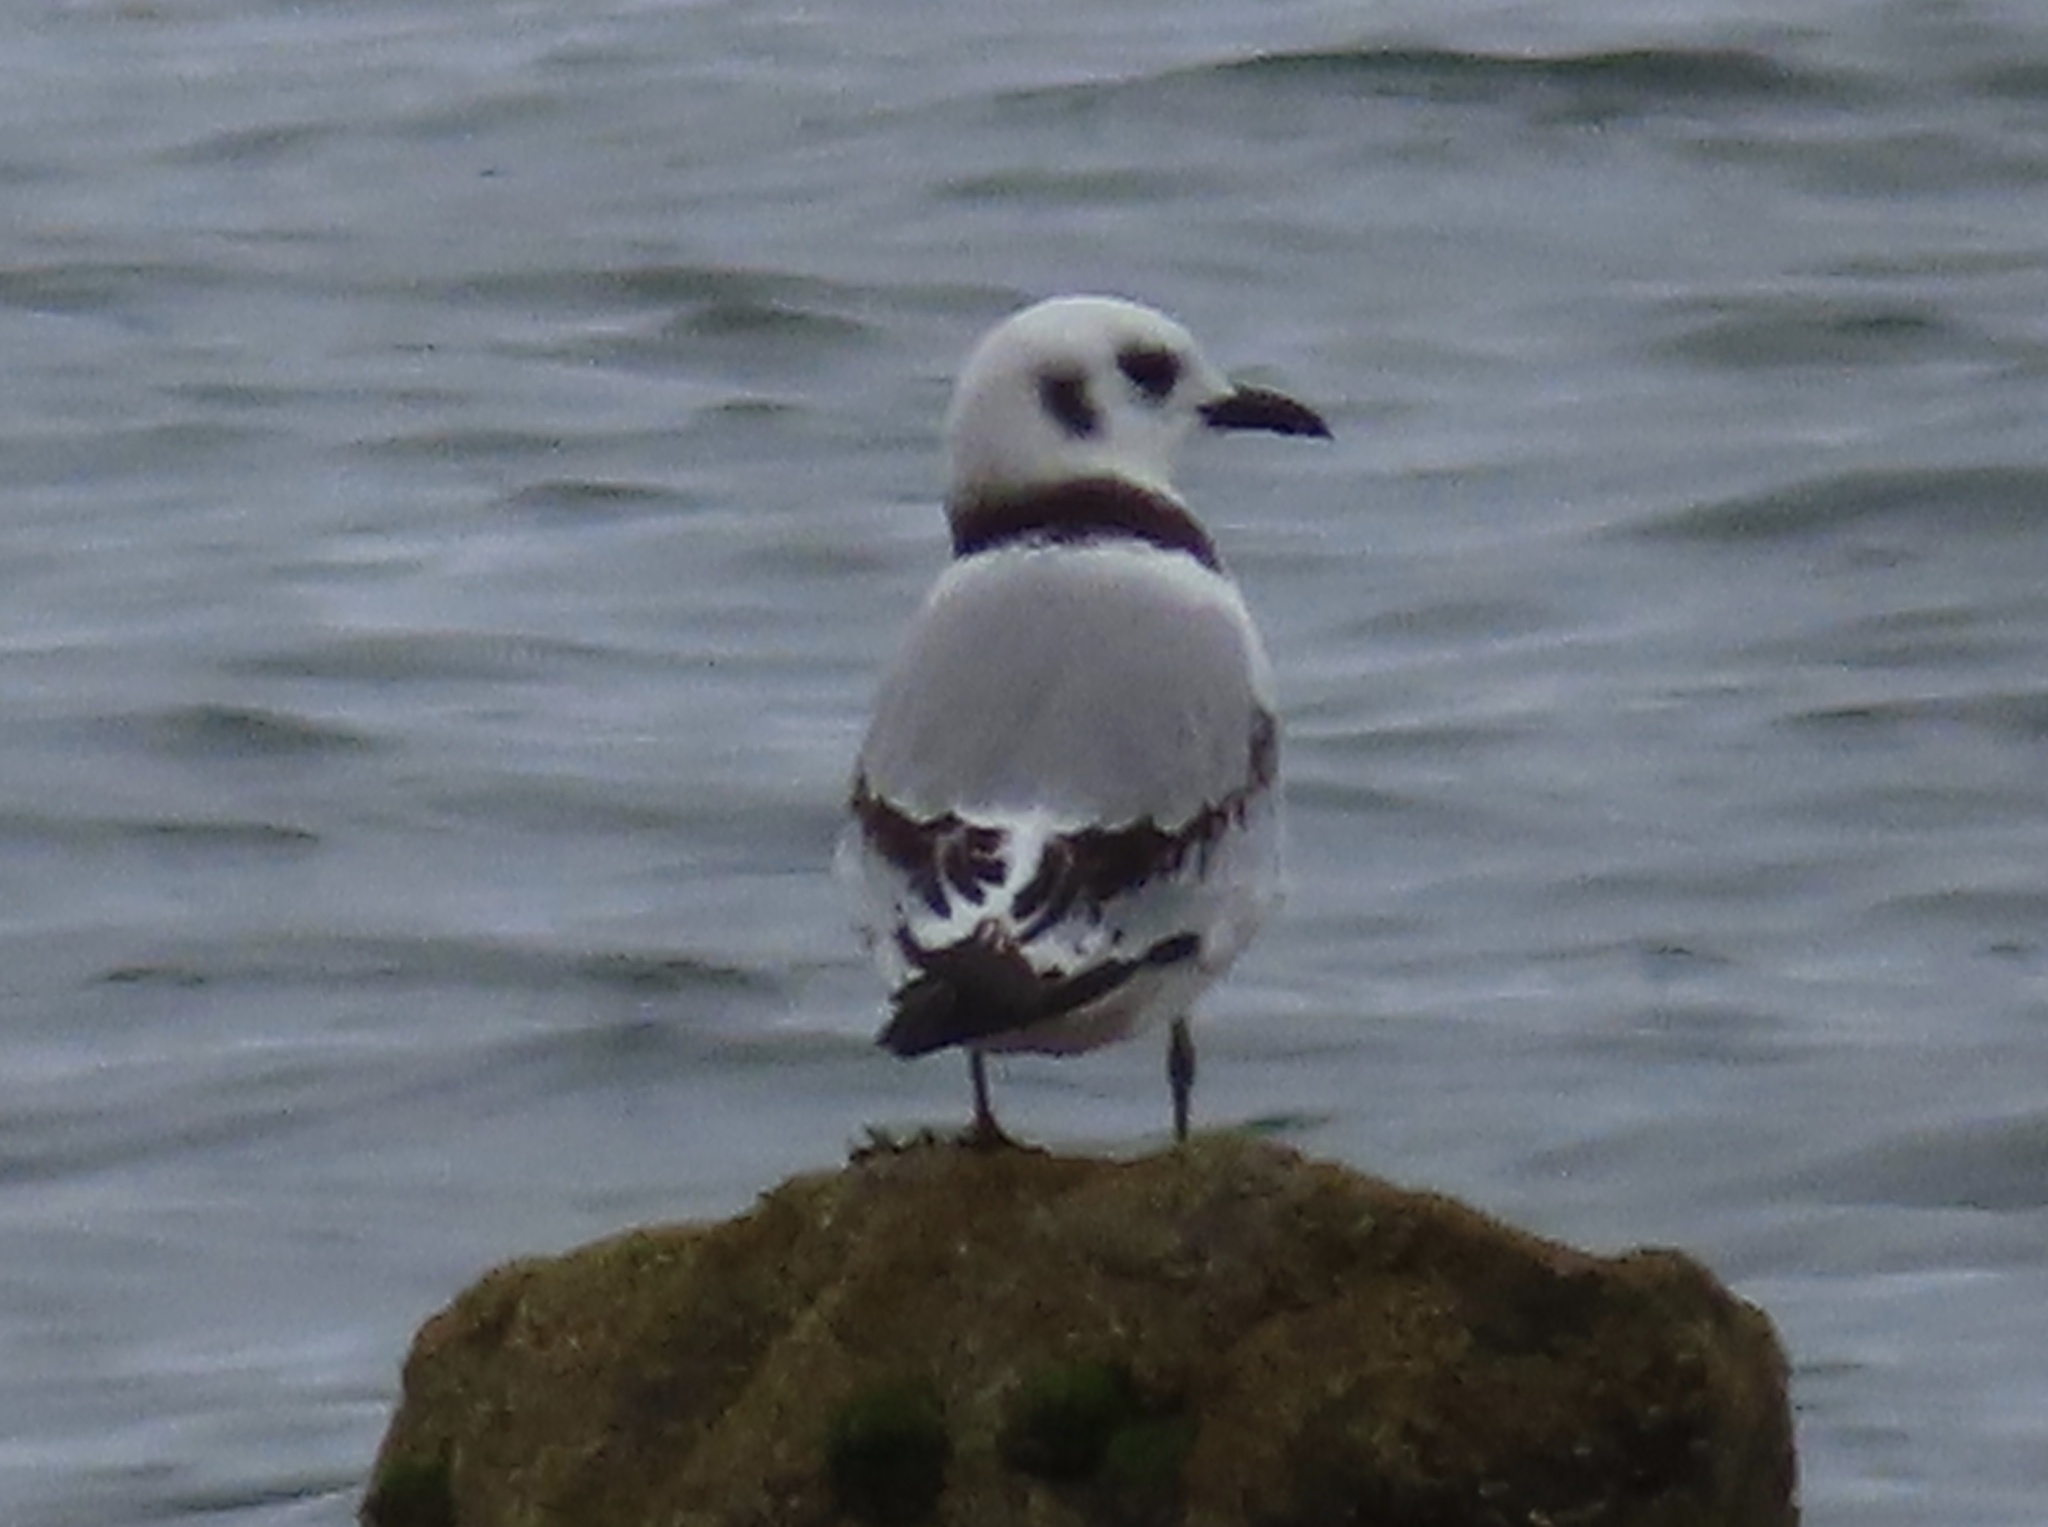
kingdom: Animalia
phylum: Chordata
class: Aves
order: Charadriiformes
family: Laridae
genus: Rissa
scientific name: Rissa tridactyla
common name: Black-legged kittiwake
